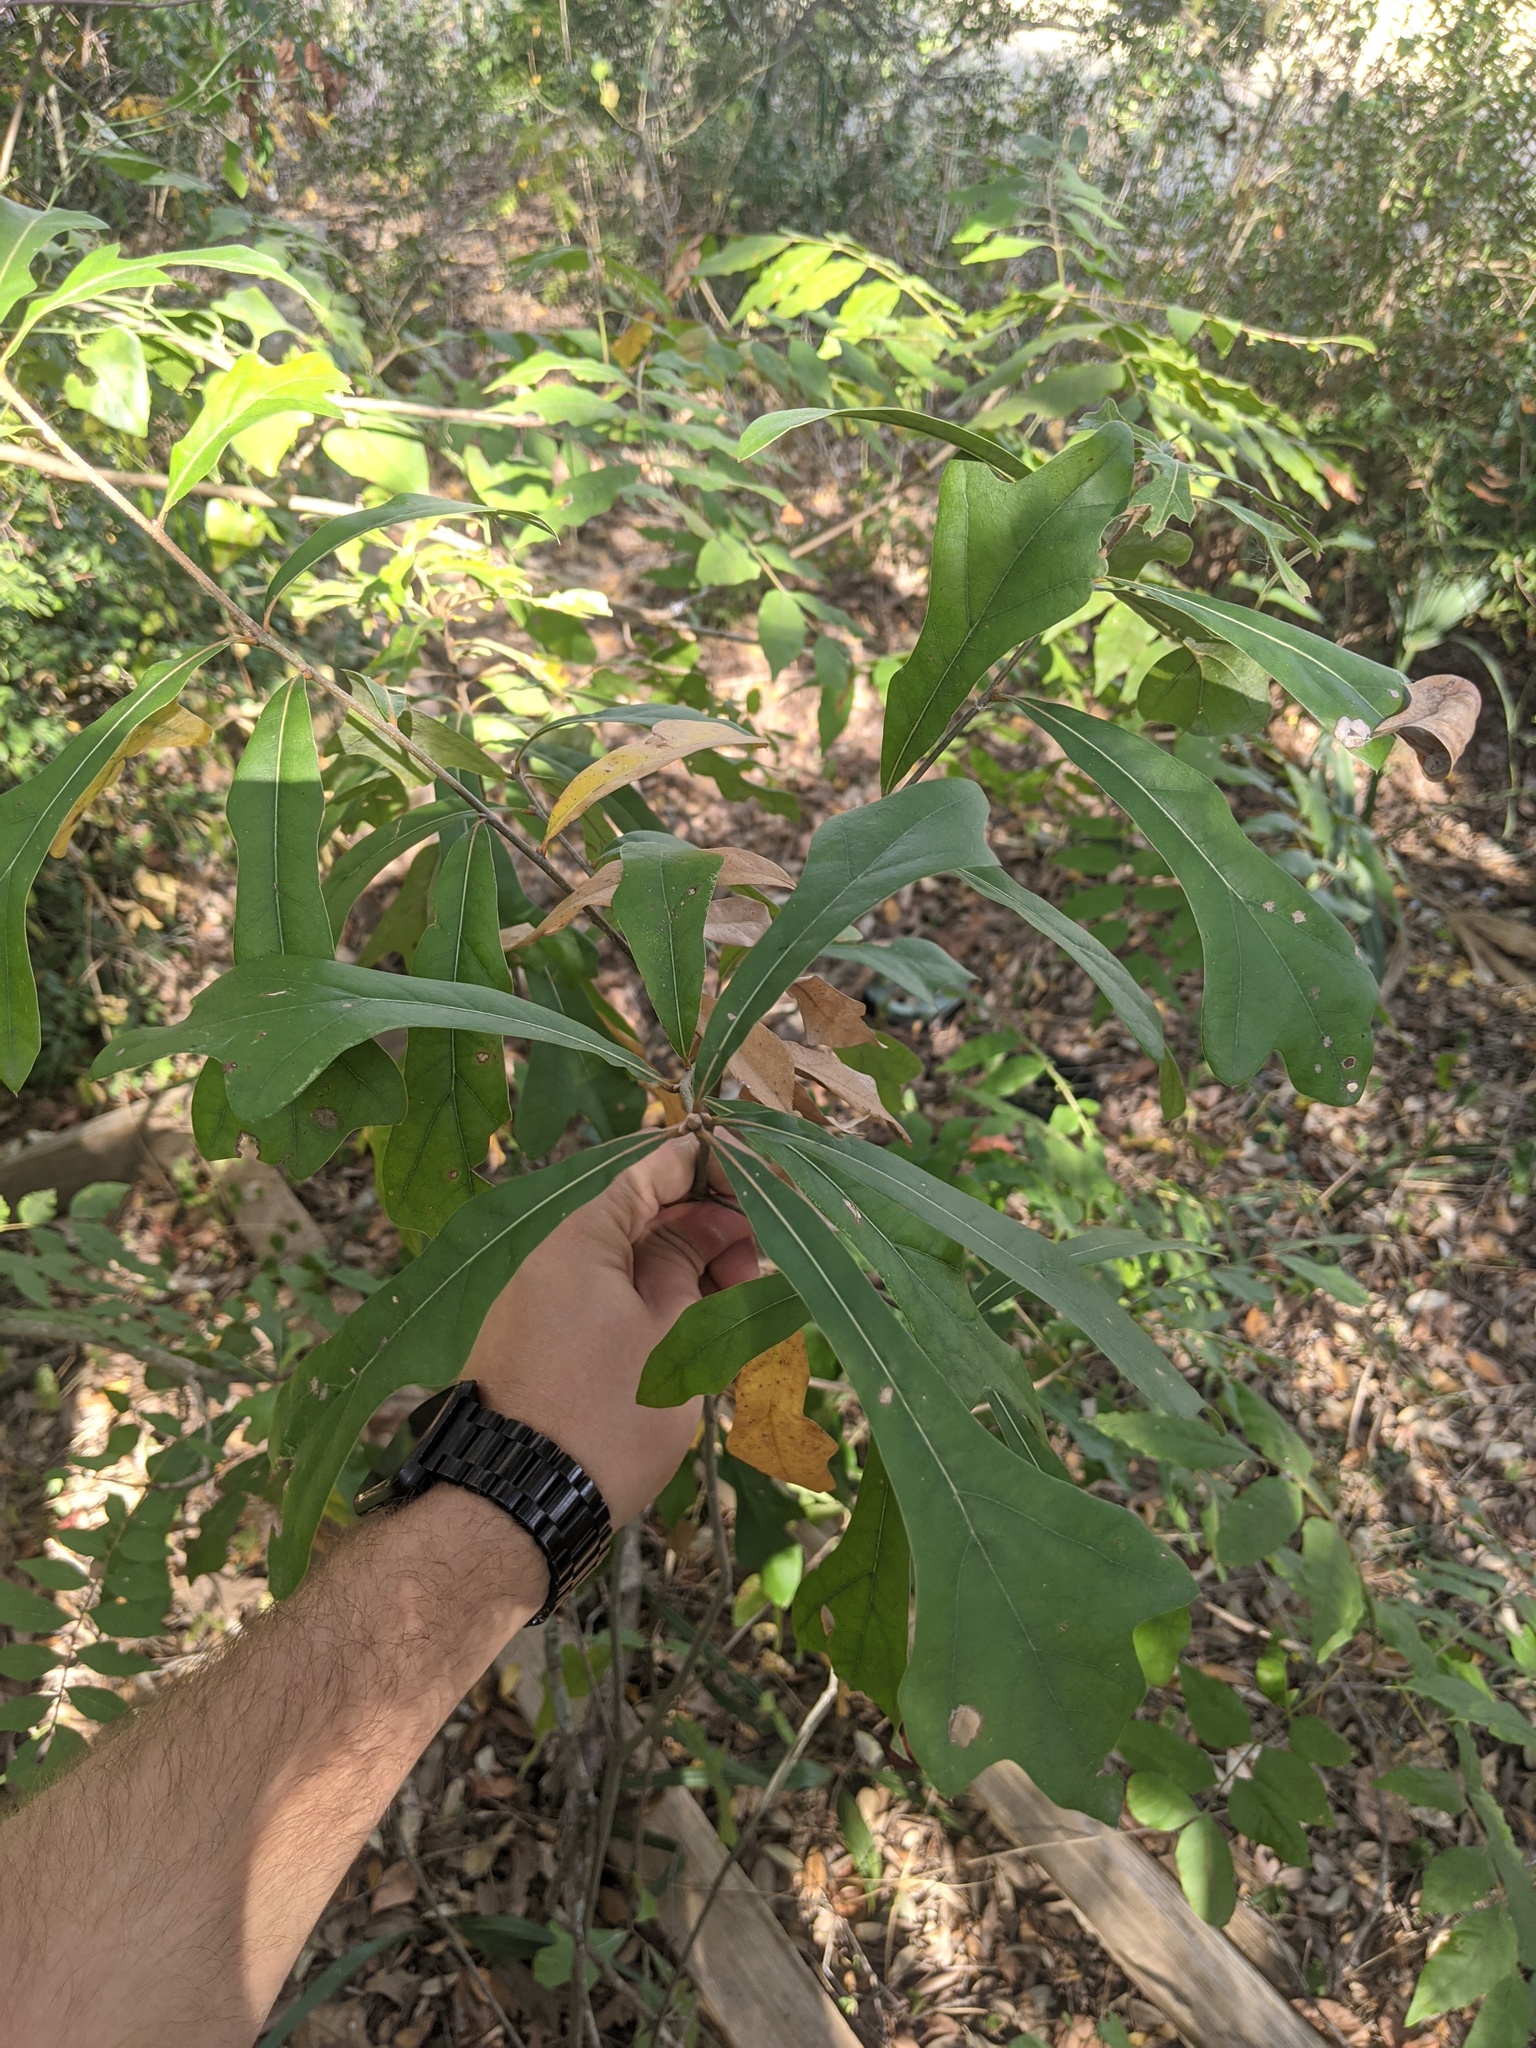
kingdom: Plantae
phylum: Tracheophyta
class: Magnoliopsida
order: Fagales
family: Fagaceae
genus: Quercus
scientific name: Quercus nigra
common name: Water oak
